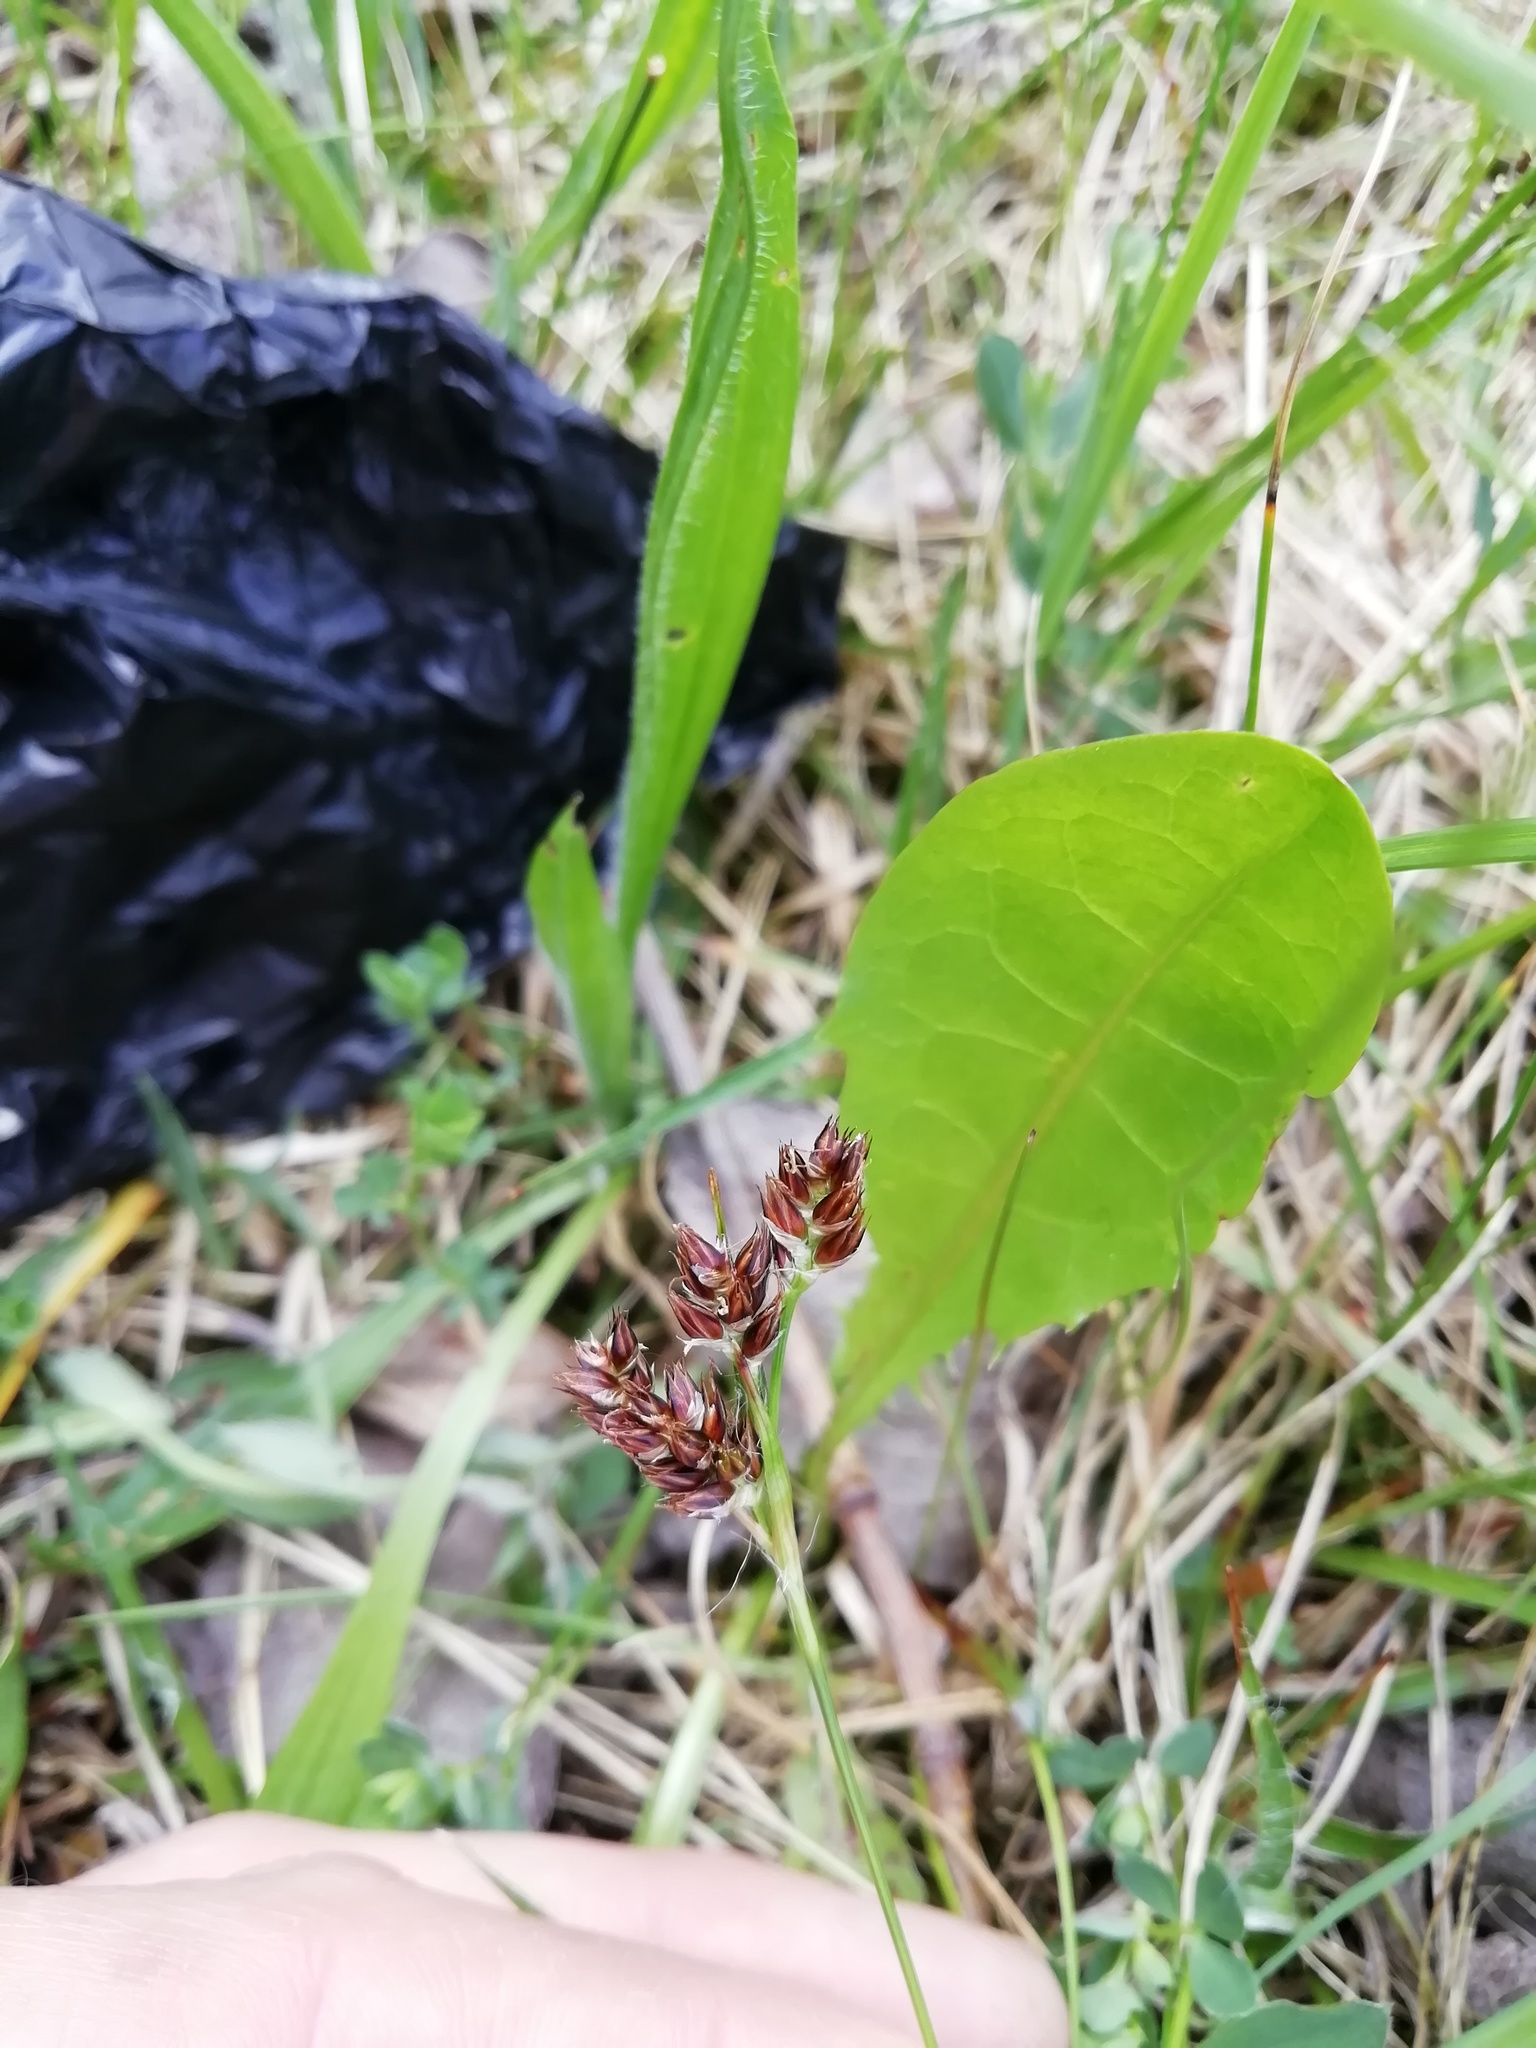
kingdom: Plantae
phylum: Tracheophyta
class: Liliopsida
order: Poales
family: Juncaceae
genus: Luzula
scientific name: Luzula campestris
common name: Field wood-rush
